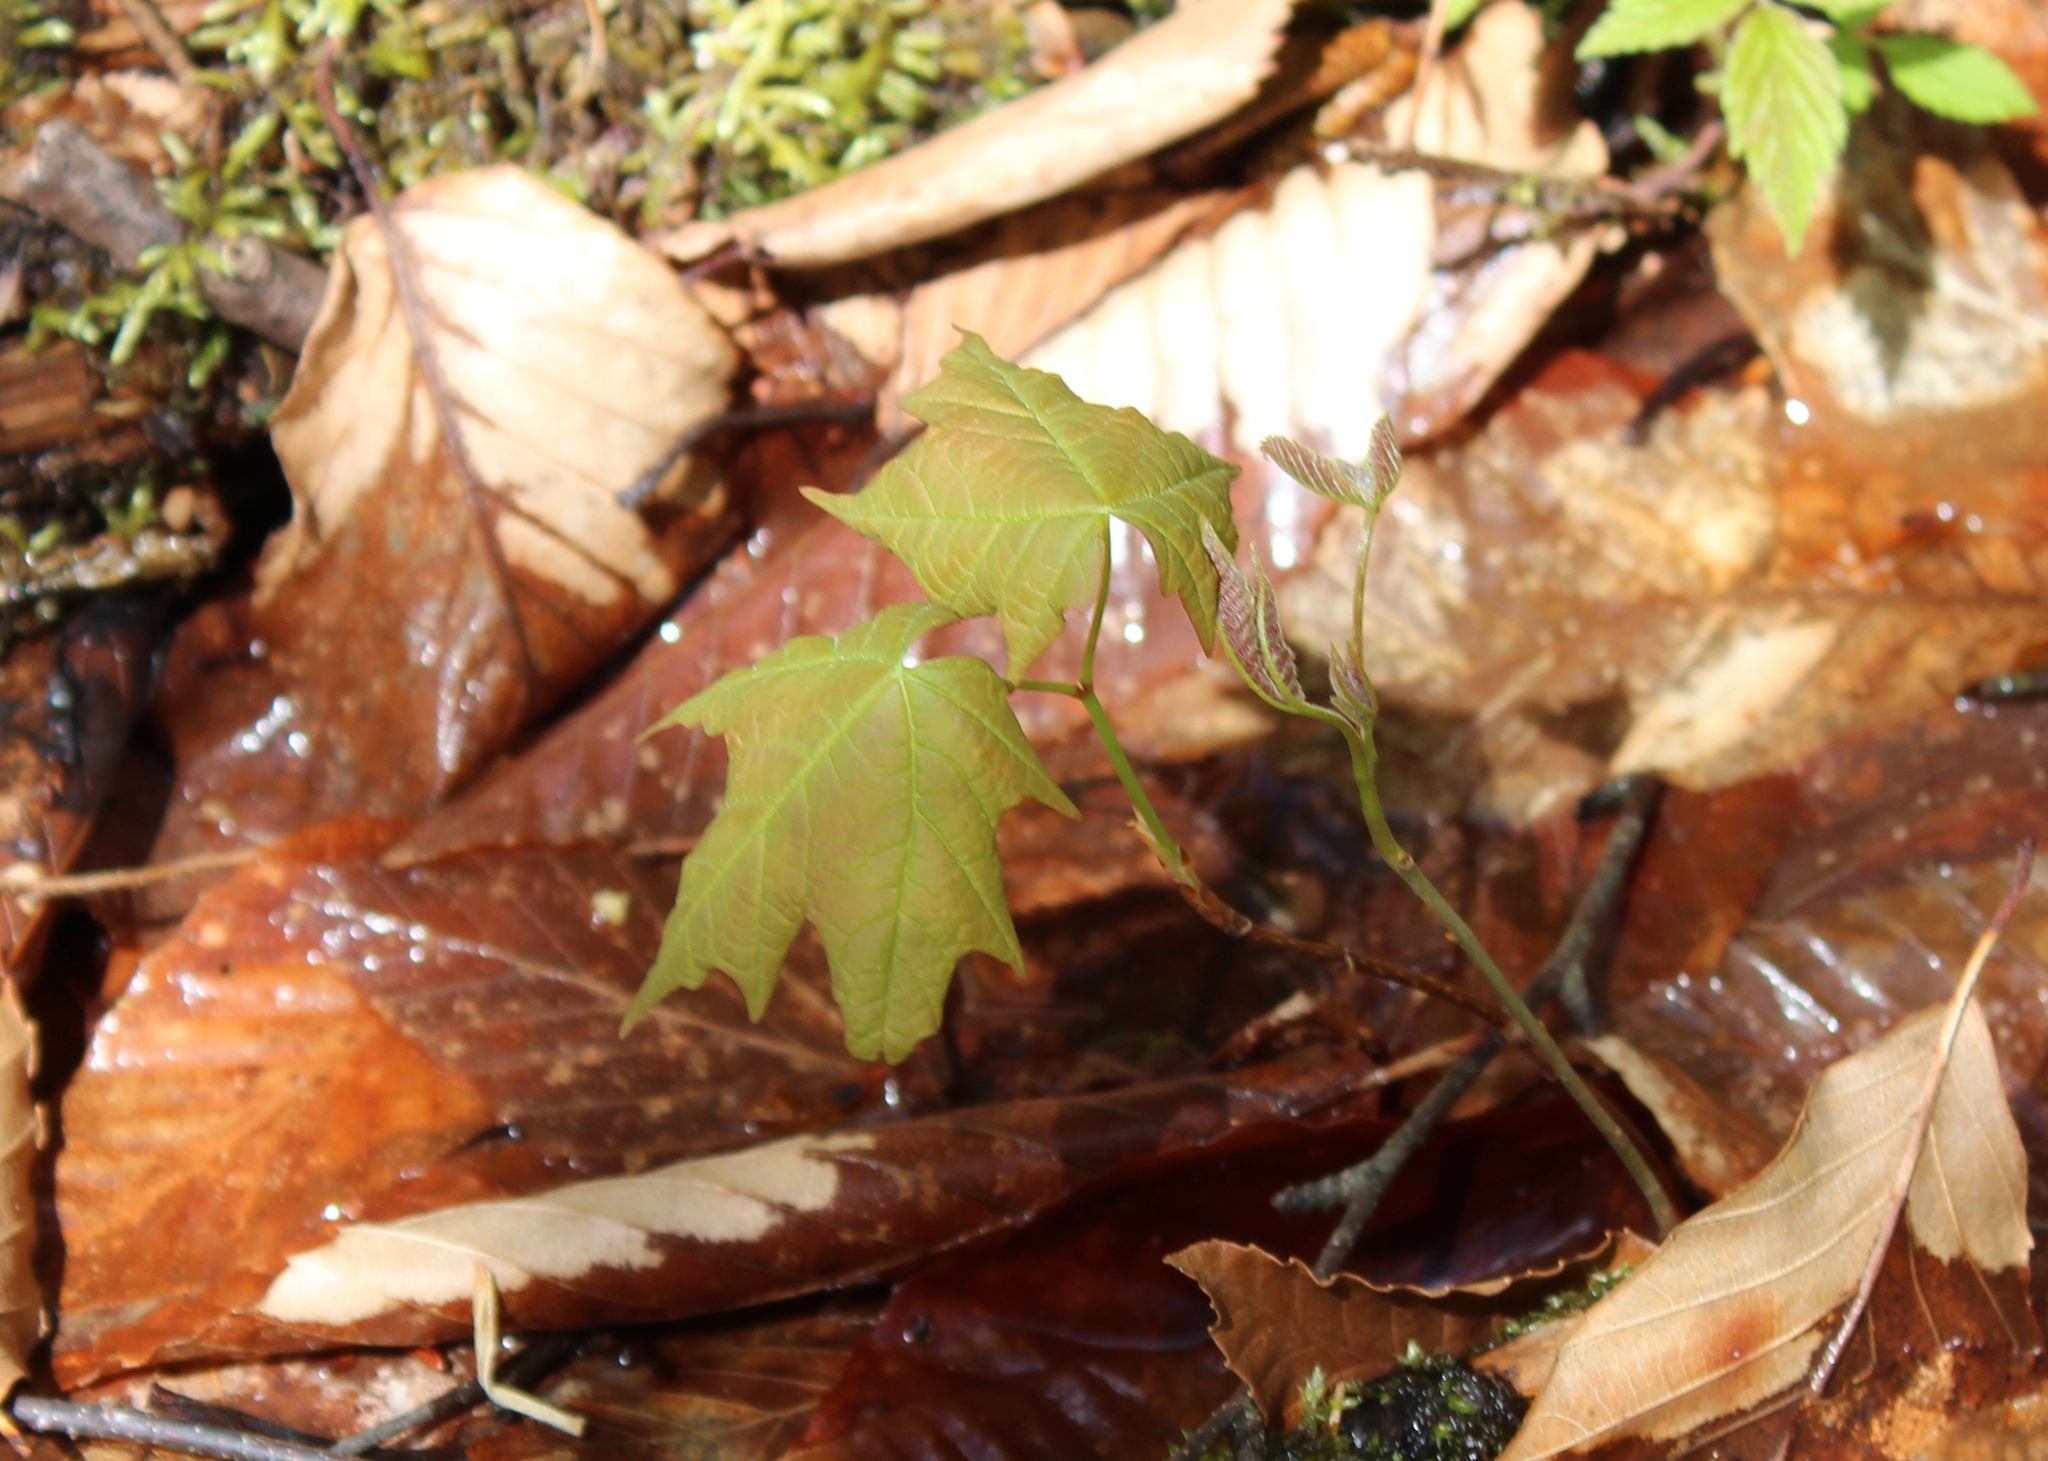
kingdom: Plantae
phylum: Tracheophyta
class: Magnoliopsida
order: Sapindales
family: Sapindaceae
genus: Acer
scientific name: Acer saccharum
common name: Sugar maple
